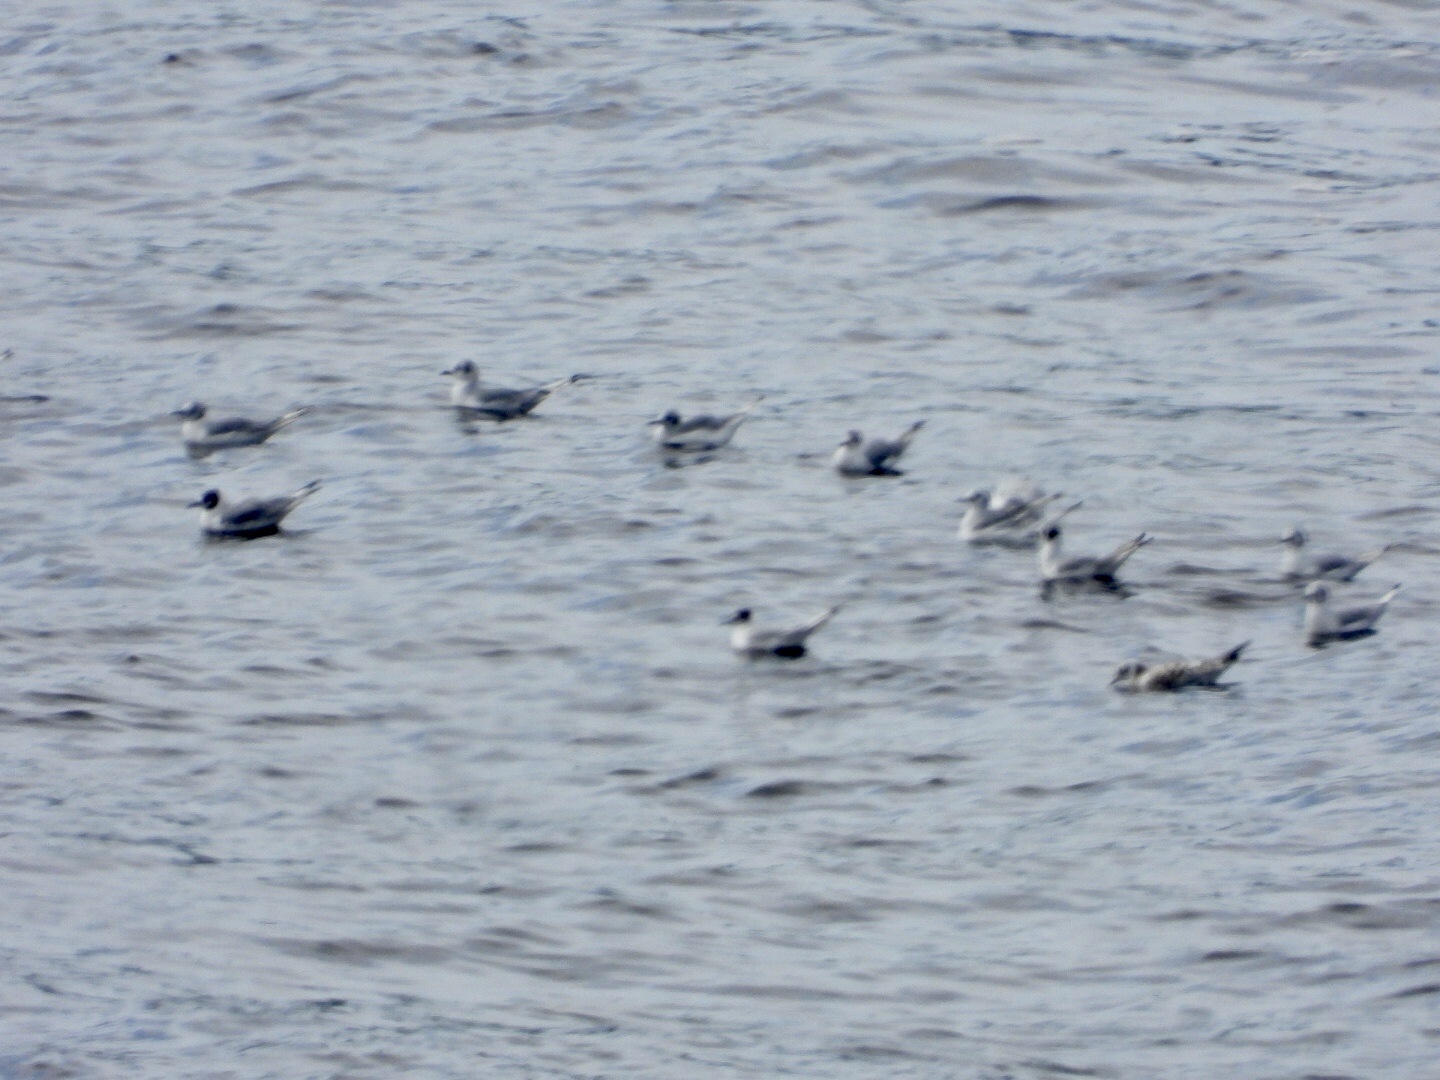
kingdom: Animalia
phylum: Chordata
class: Aves
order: Charadriiformes
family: Laridae
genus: Chroicocephalus
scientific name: Chroicocephalus philadelphia
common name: Bonaparte's gull
